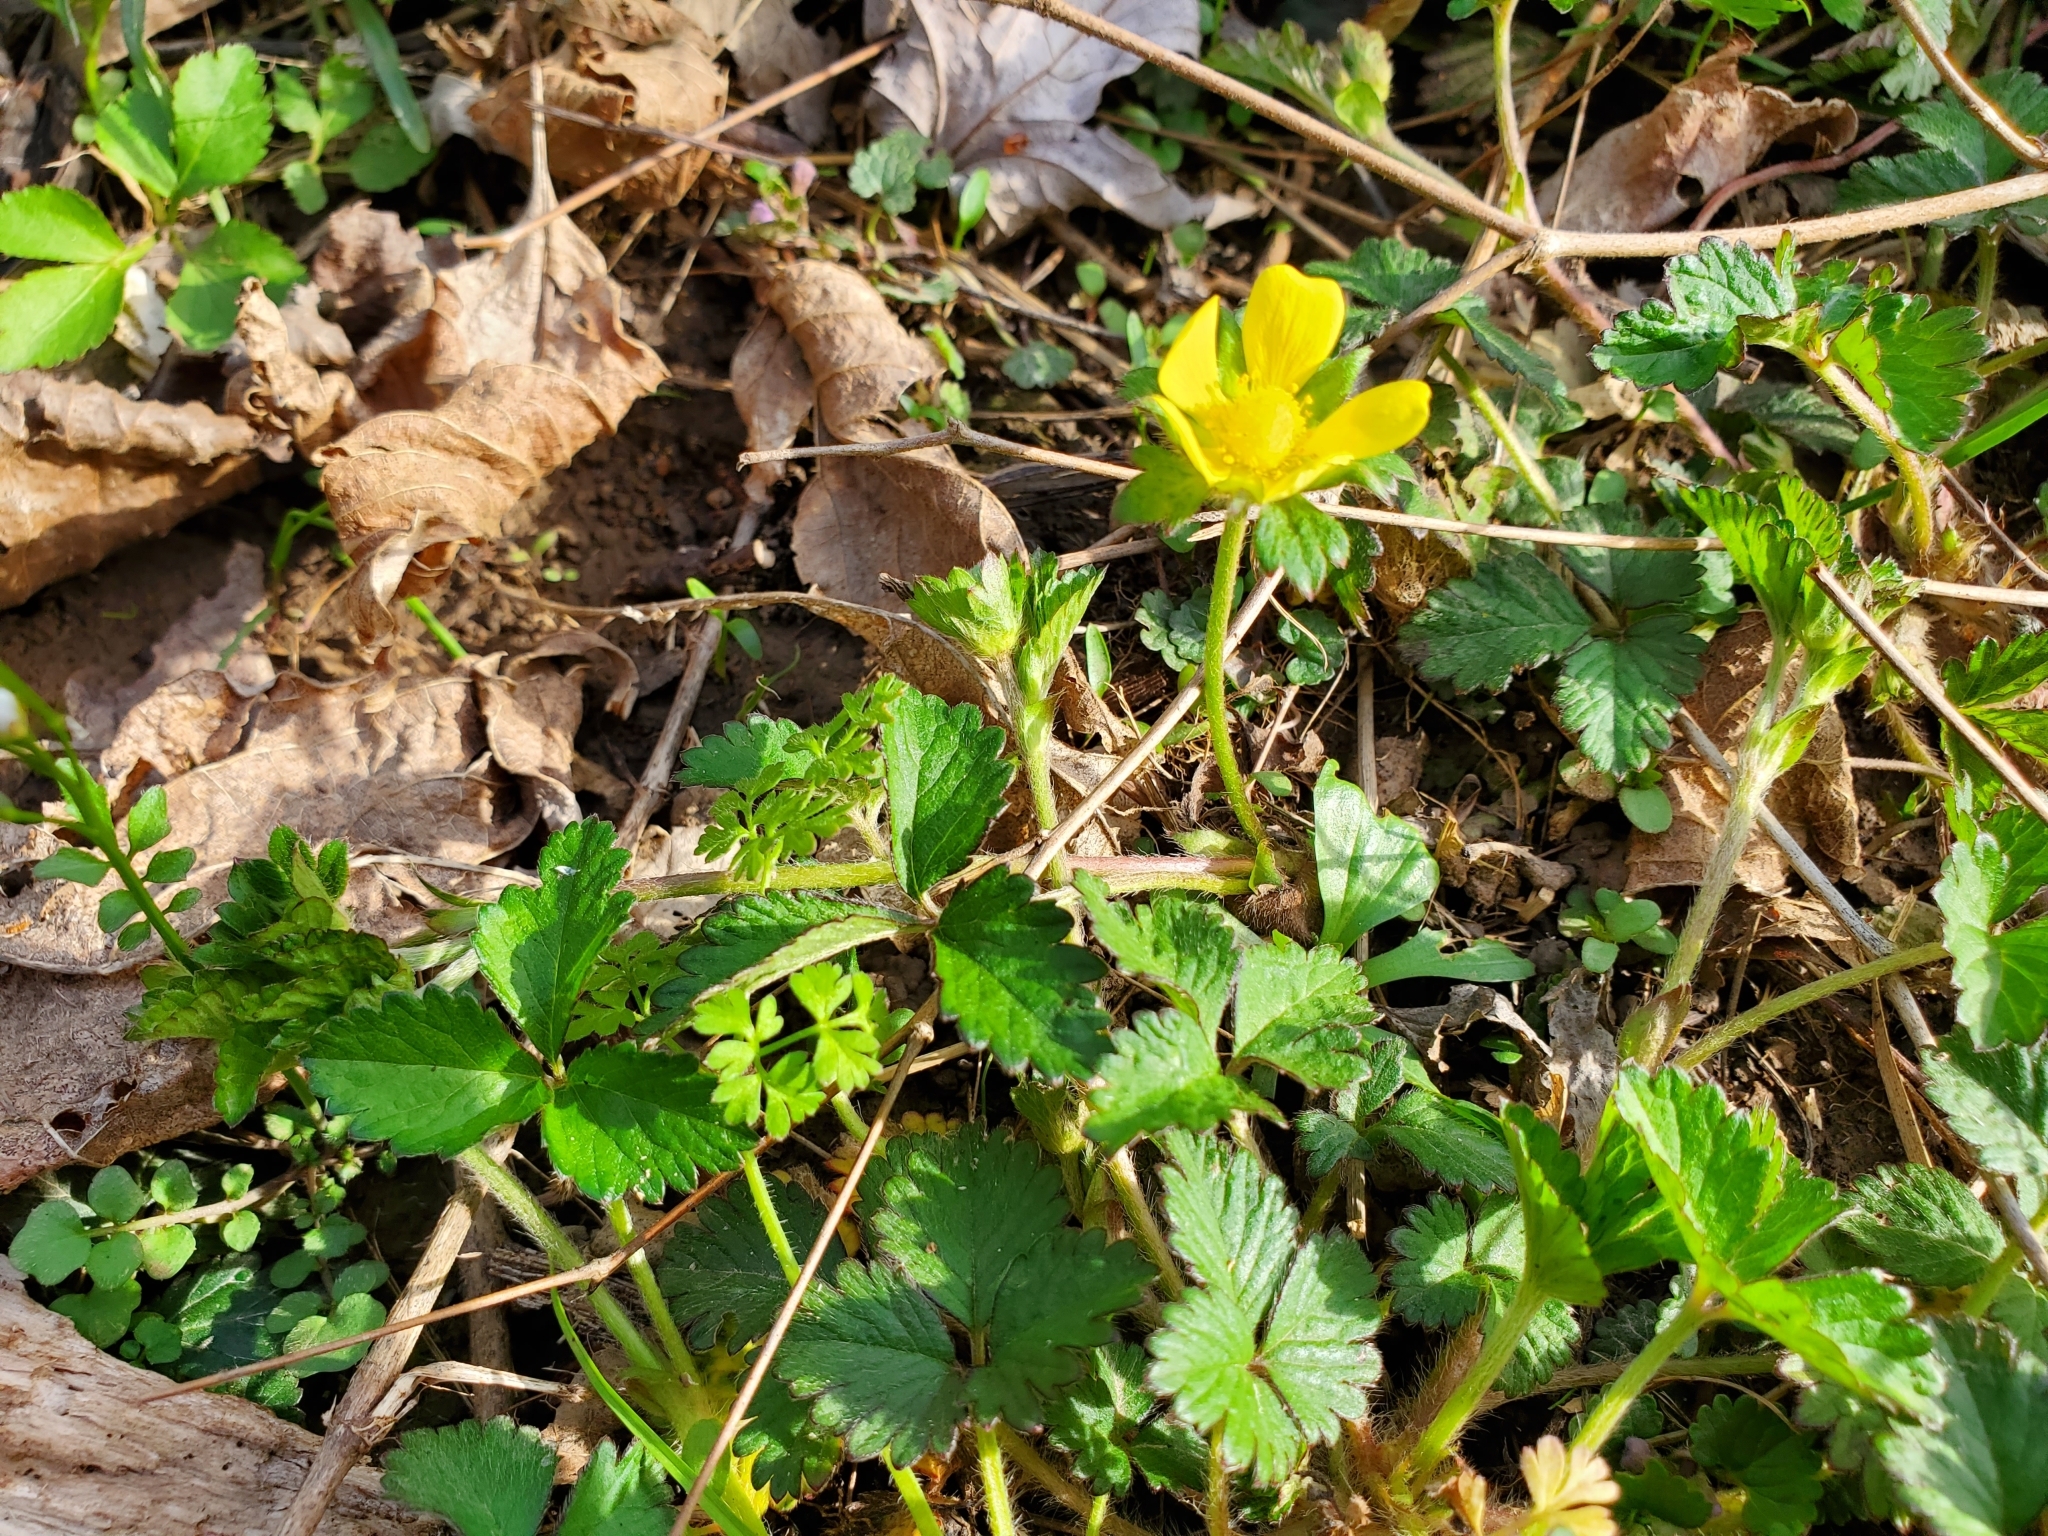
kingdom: Plantae
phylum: Tracheophyta
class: Magnoliopsida
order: Rosales
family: Rosaceae
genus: Potentilla
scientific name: Potentilla indica
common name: Yellow-flowered strawberry
